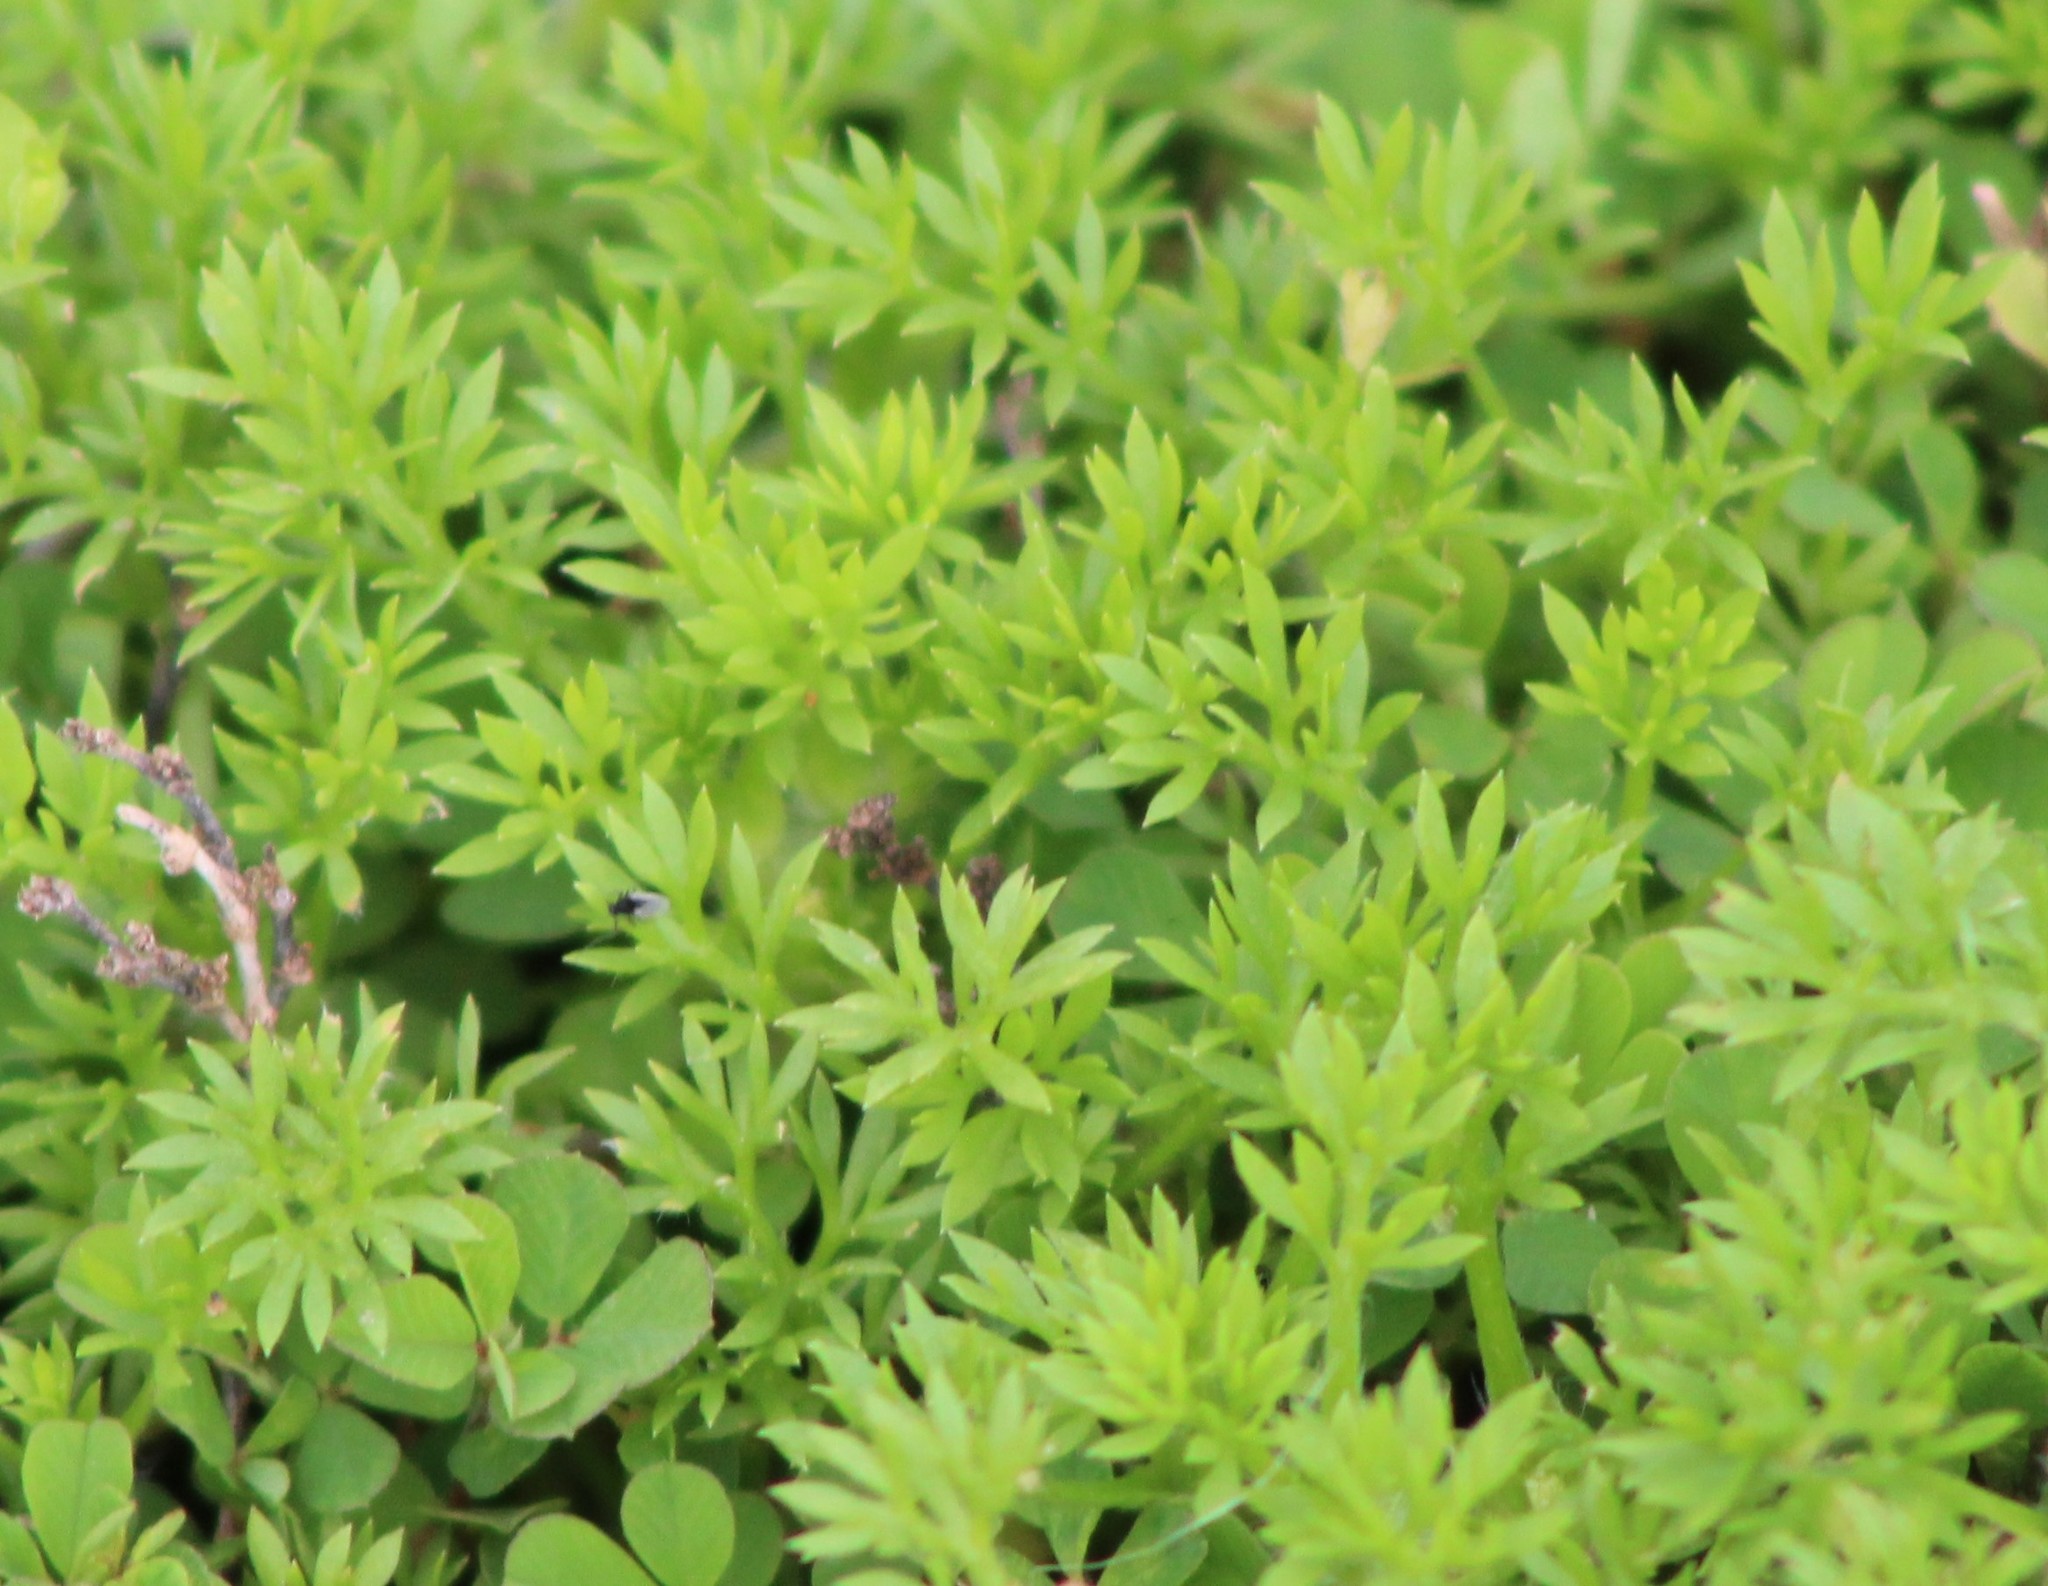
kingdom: Plantae
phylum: Tracheophyta
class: Magnoliopsida
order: Asterales
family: Asteraceae
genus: Soliva
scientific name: Soliva sessilis
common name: Field burrweed
